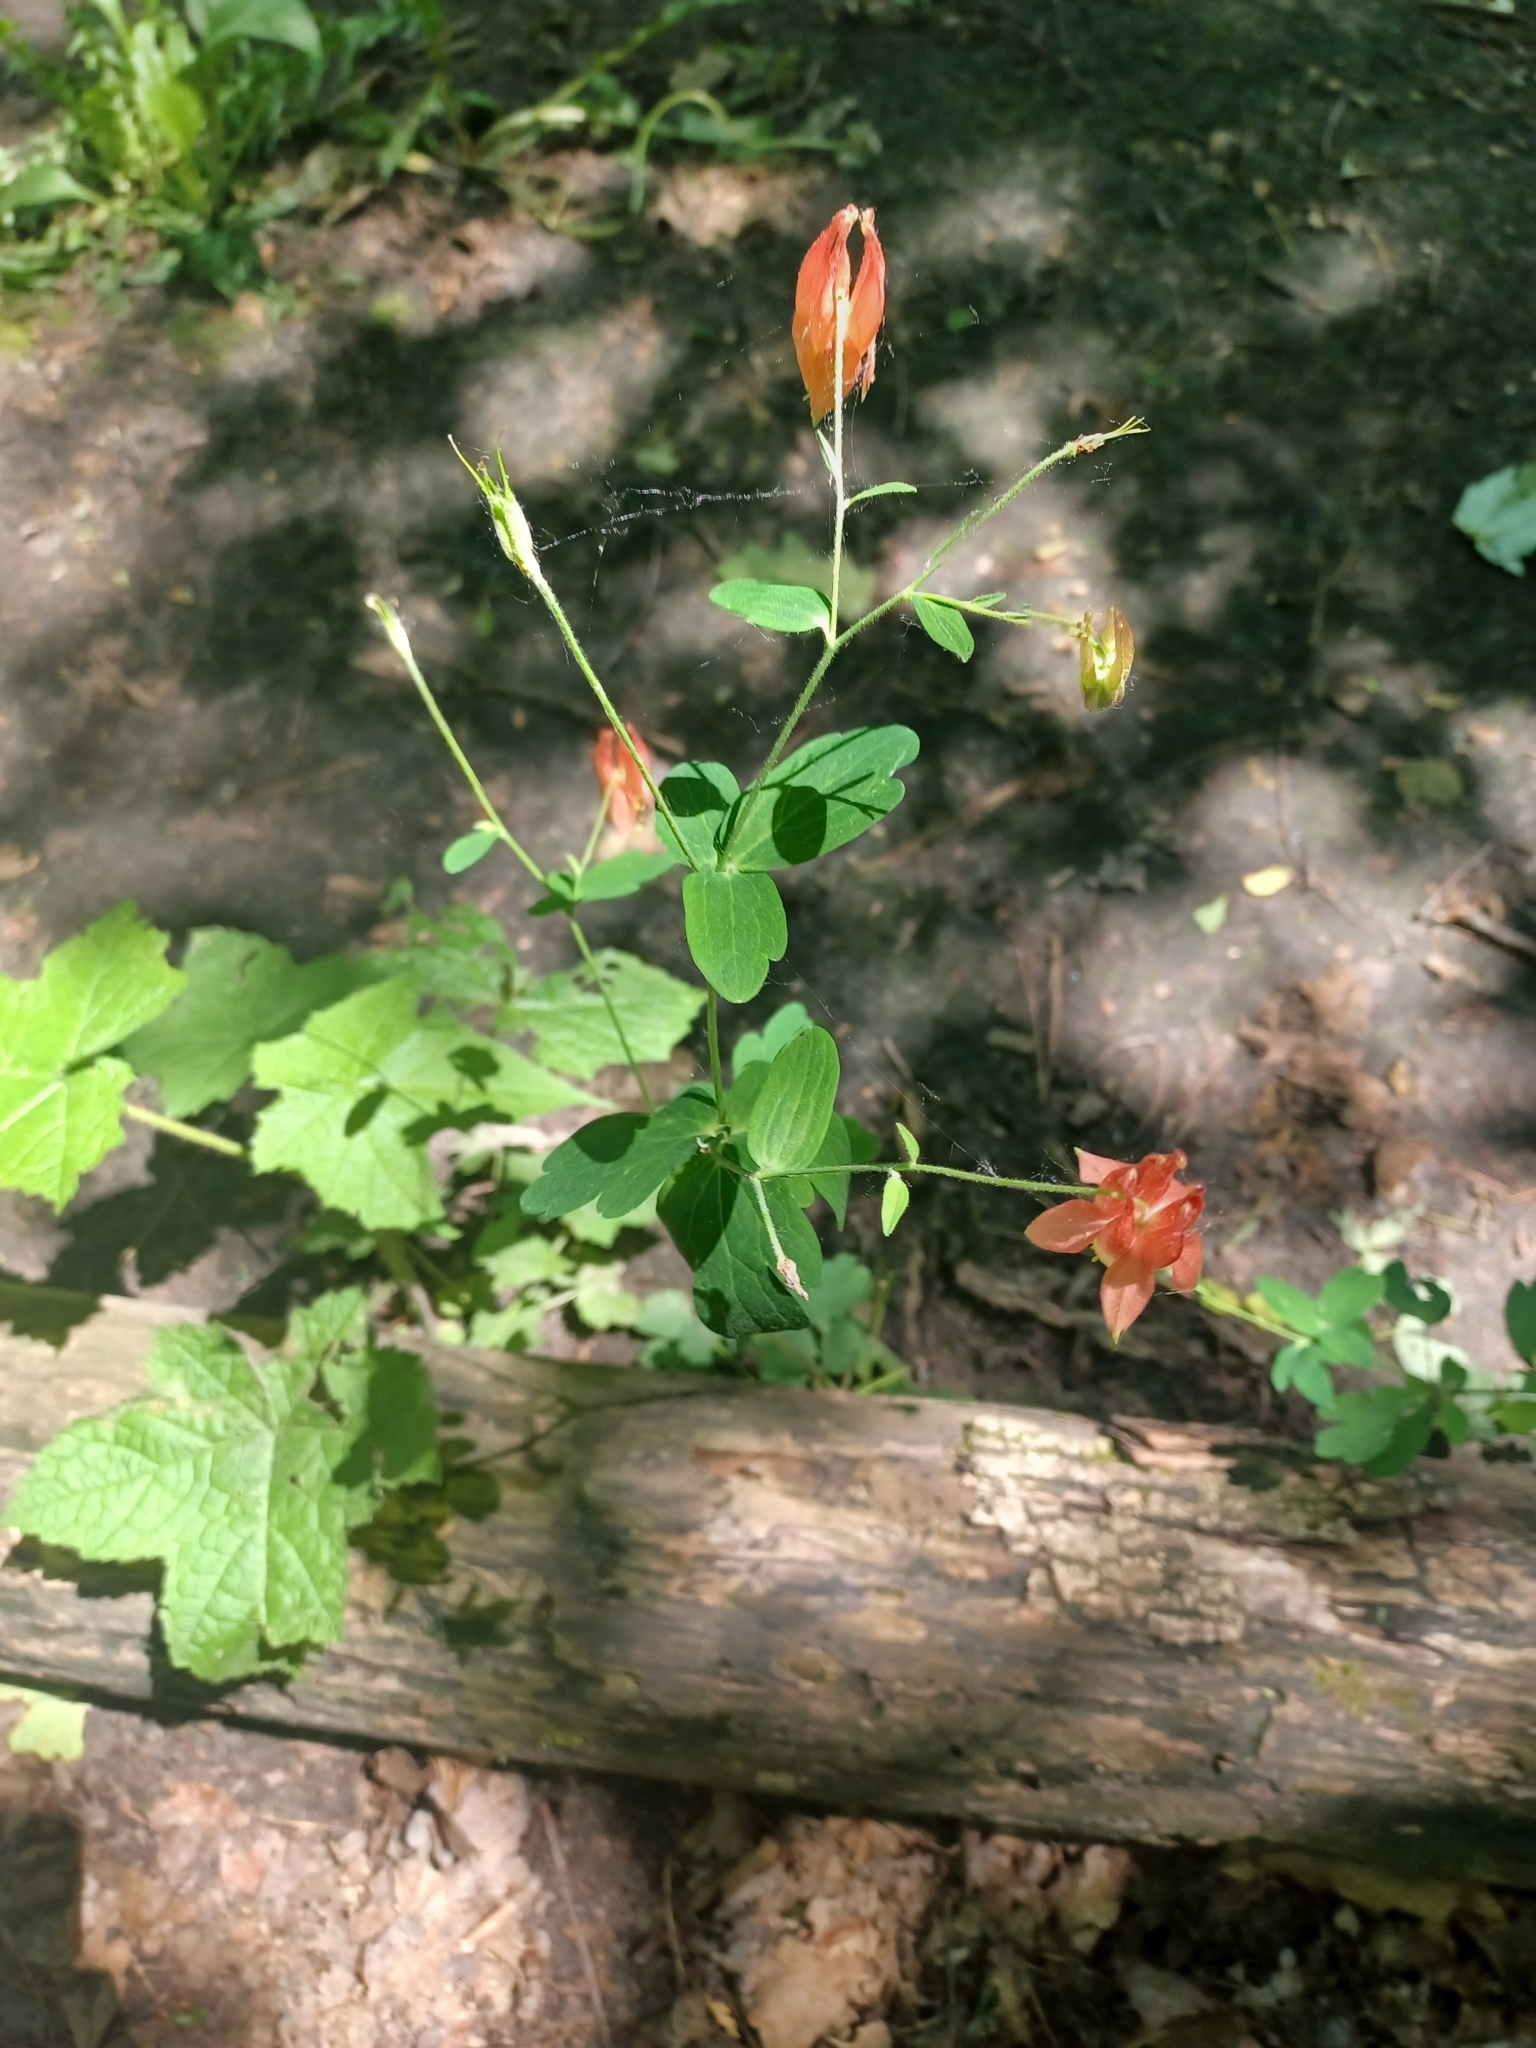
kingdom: Plantae
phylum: Tracheophyta
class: Magnoliopsida
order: Ranunculales
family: Ranunculaceae
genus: Aquilegia
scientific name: Aquilegia canadensis
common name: American columbine
